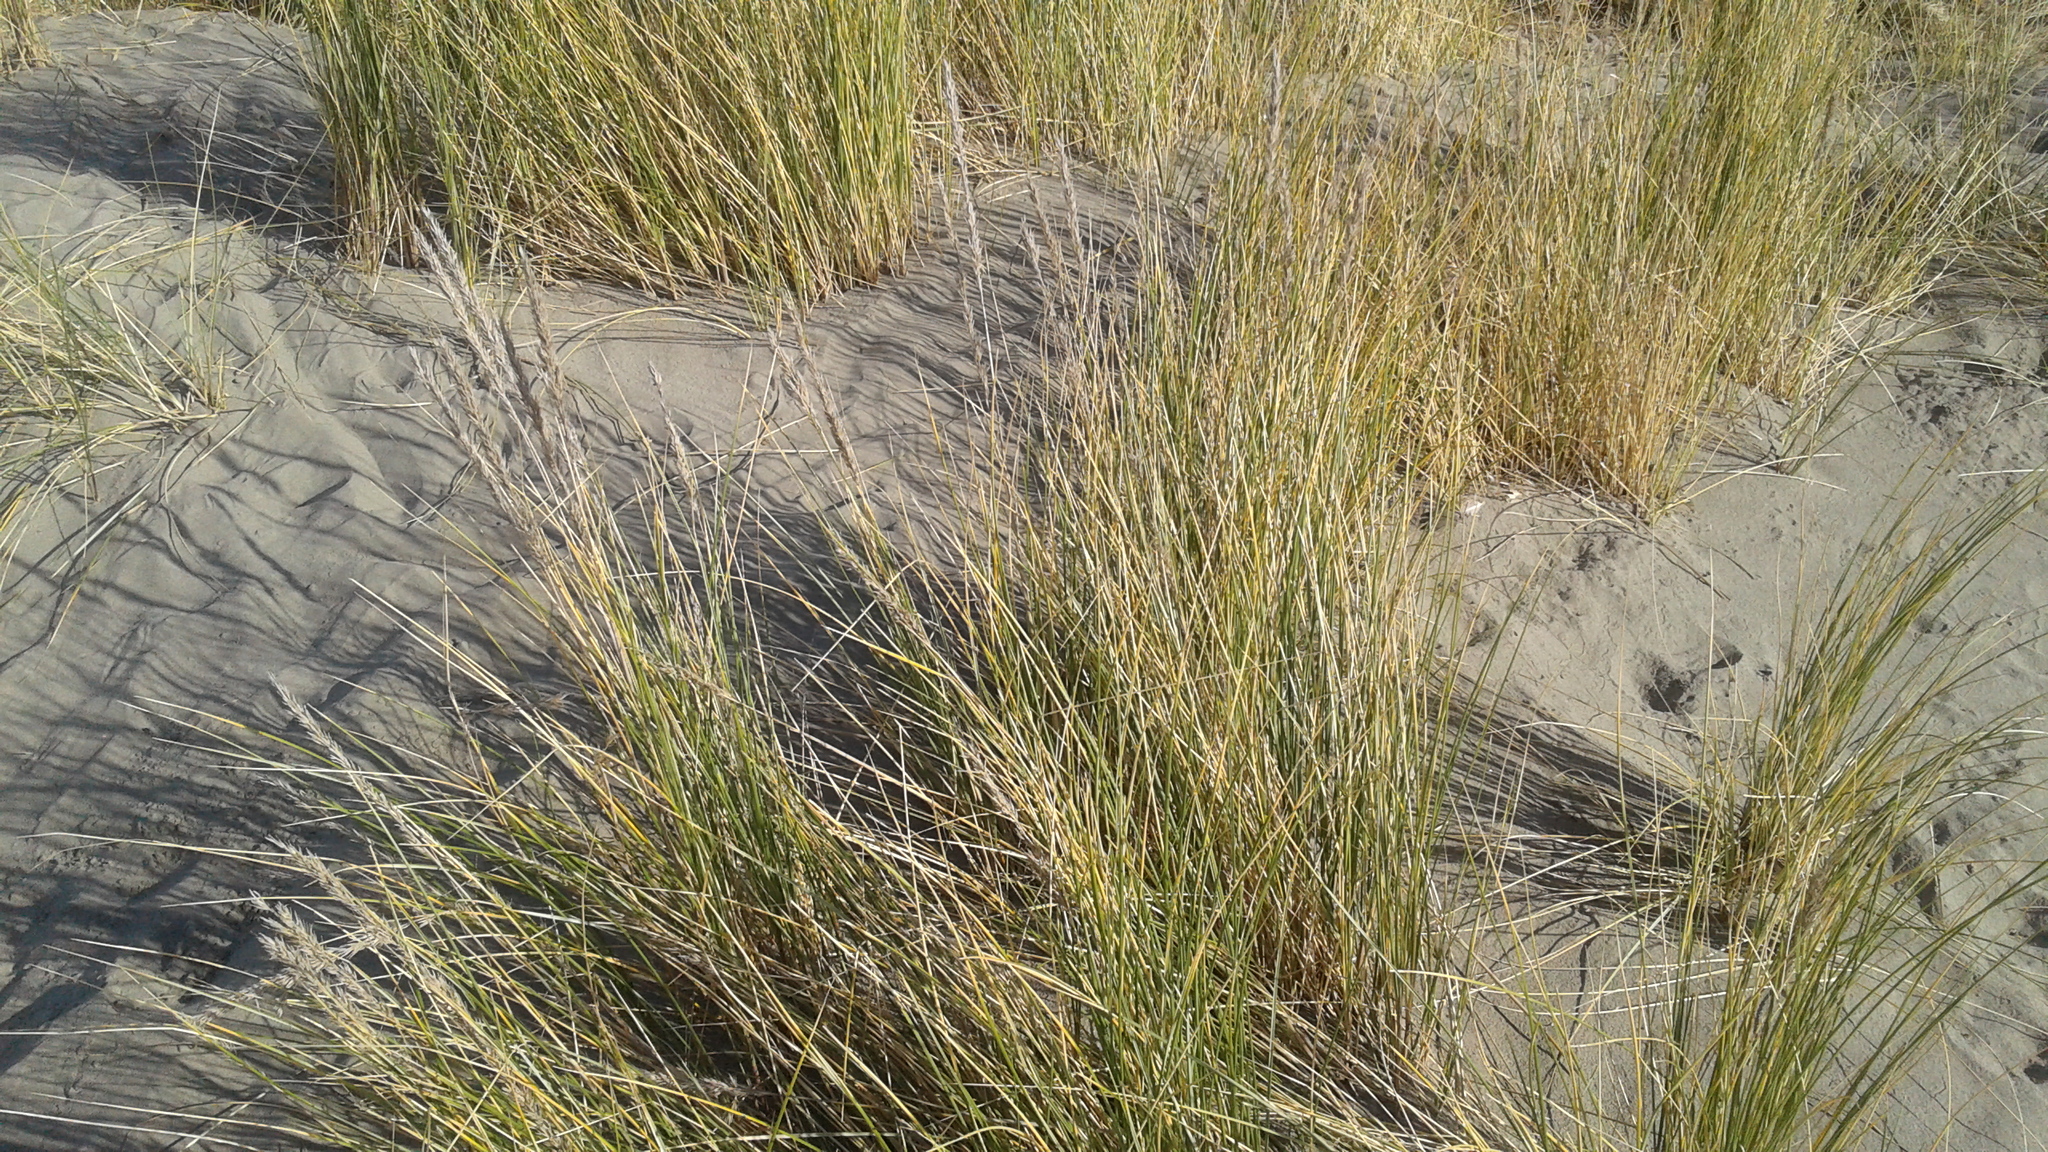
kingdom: Plantae
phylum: Tracheophyta
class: Liliopsida
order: Poales
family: Poaceae
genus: Calamagrostis
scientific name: Calamagrostis arenaria
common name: European beachgrass
